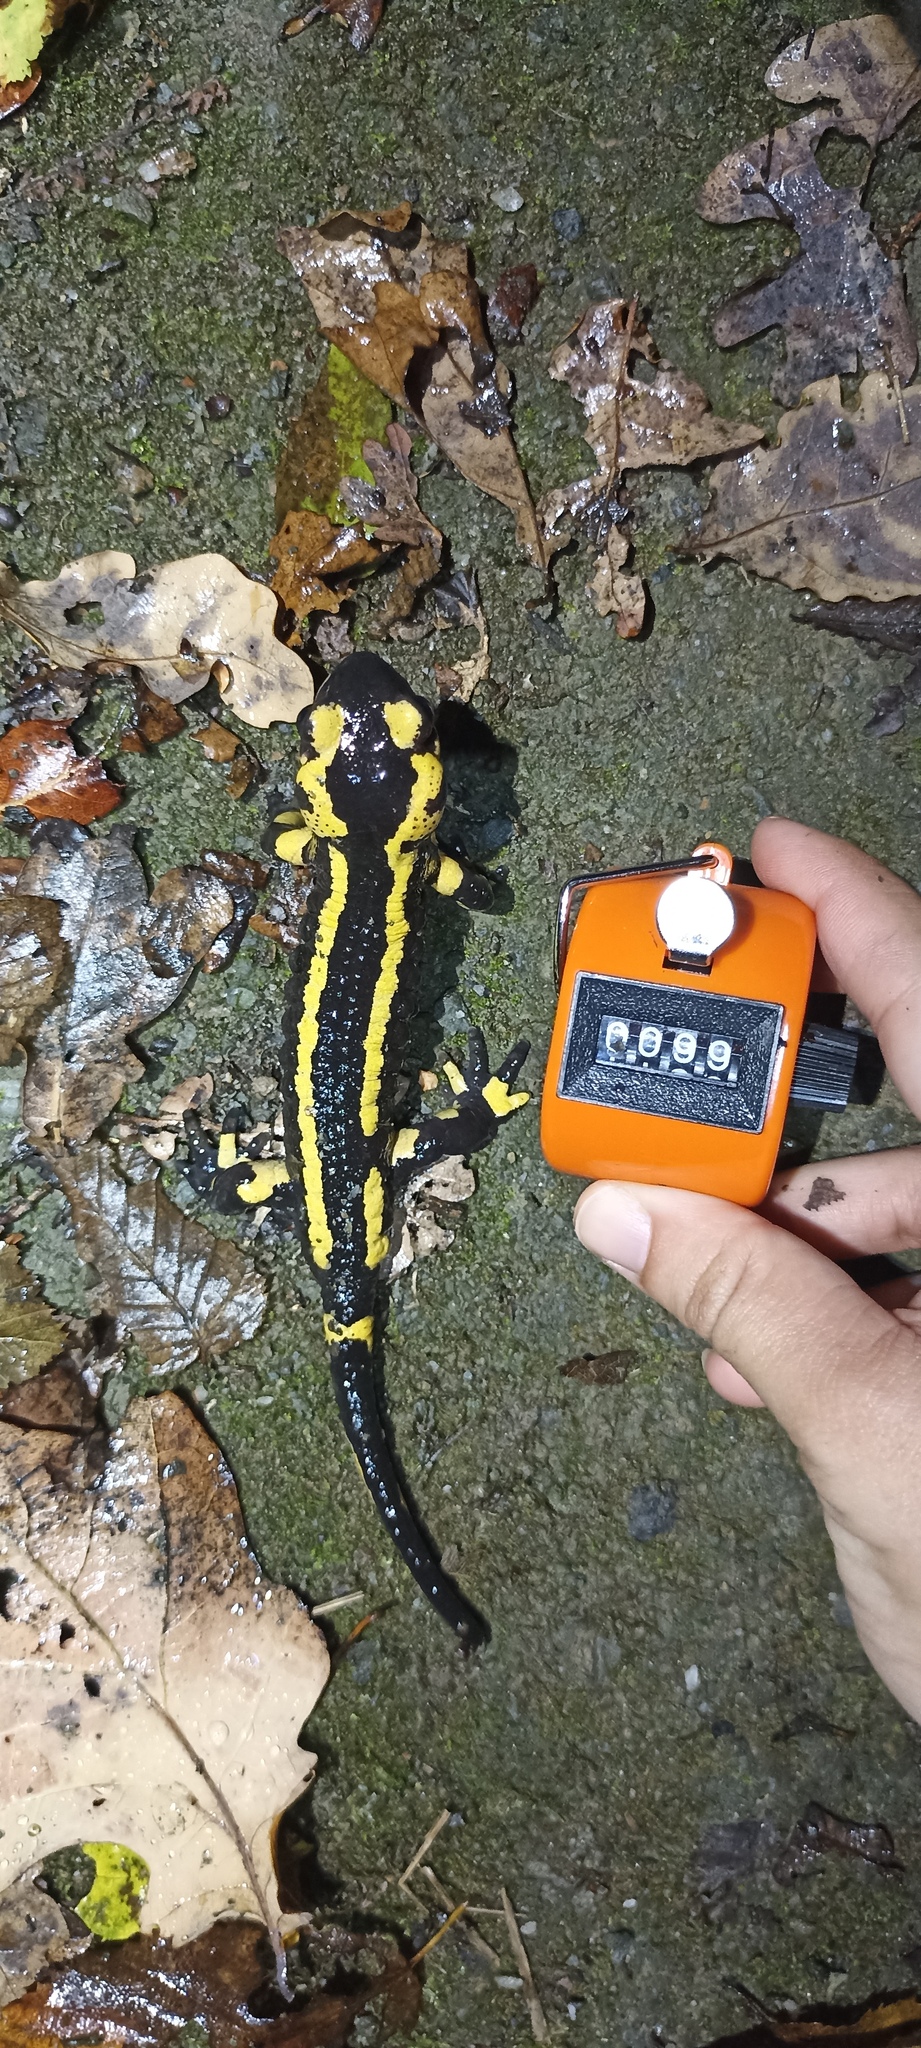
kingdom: Animalia
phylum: Chordata
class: Amphibia
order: Caudata
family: Salamandridae
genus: Salamandra
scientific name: Salamandra salamandra
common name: Fire salamander
